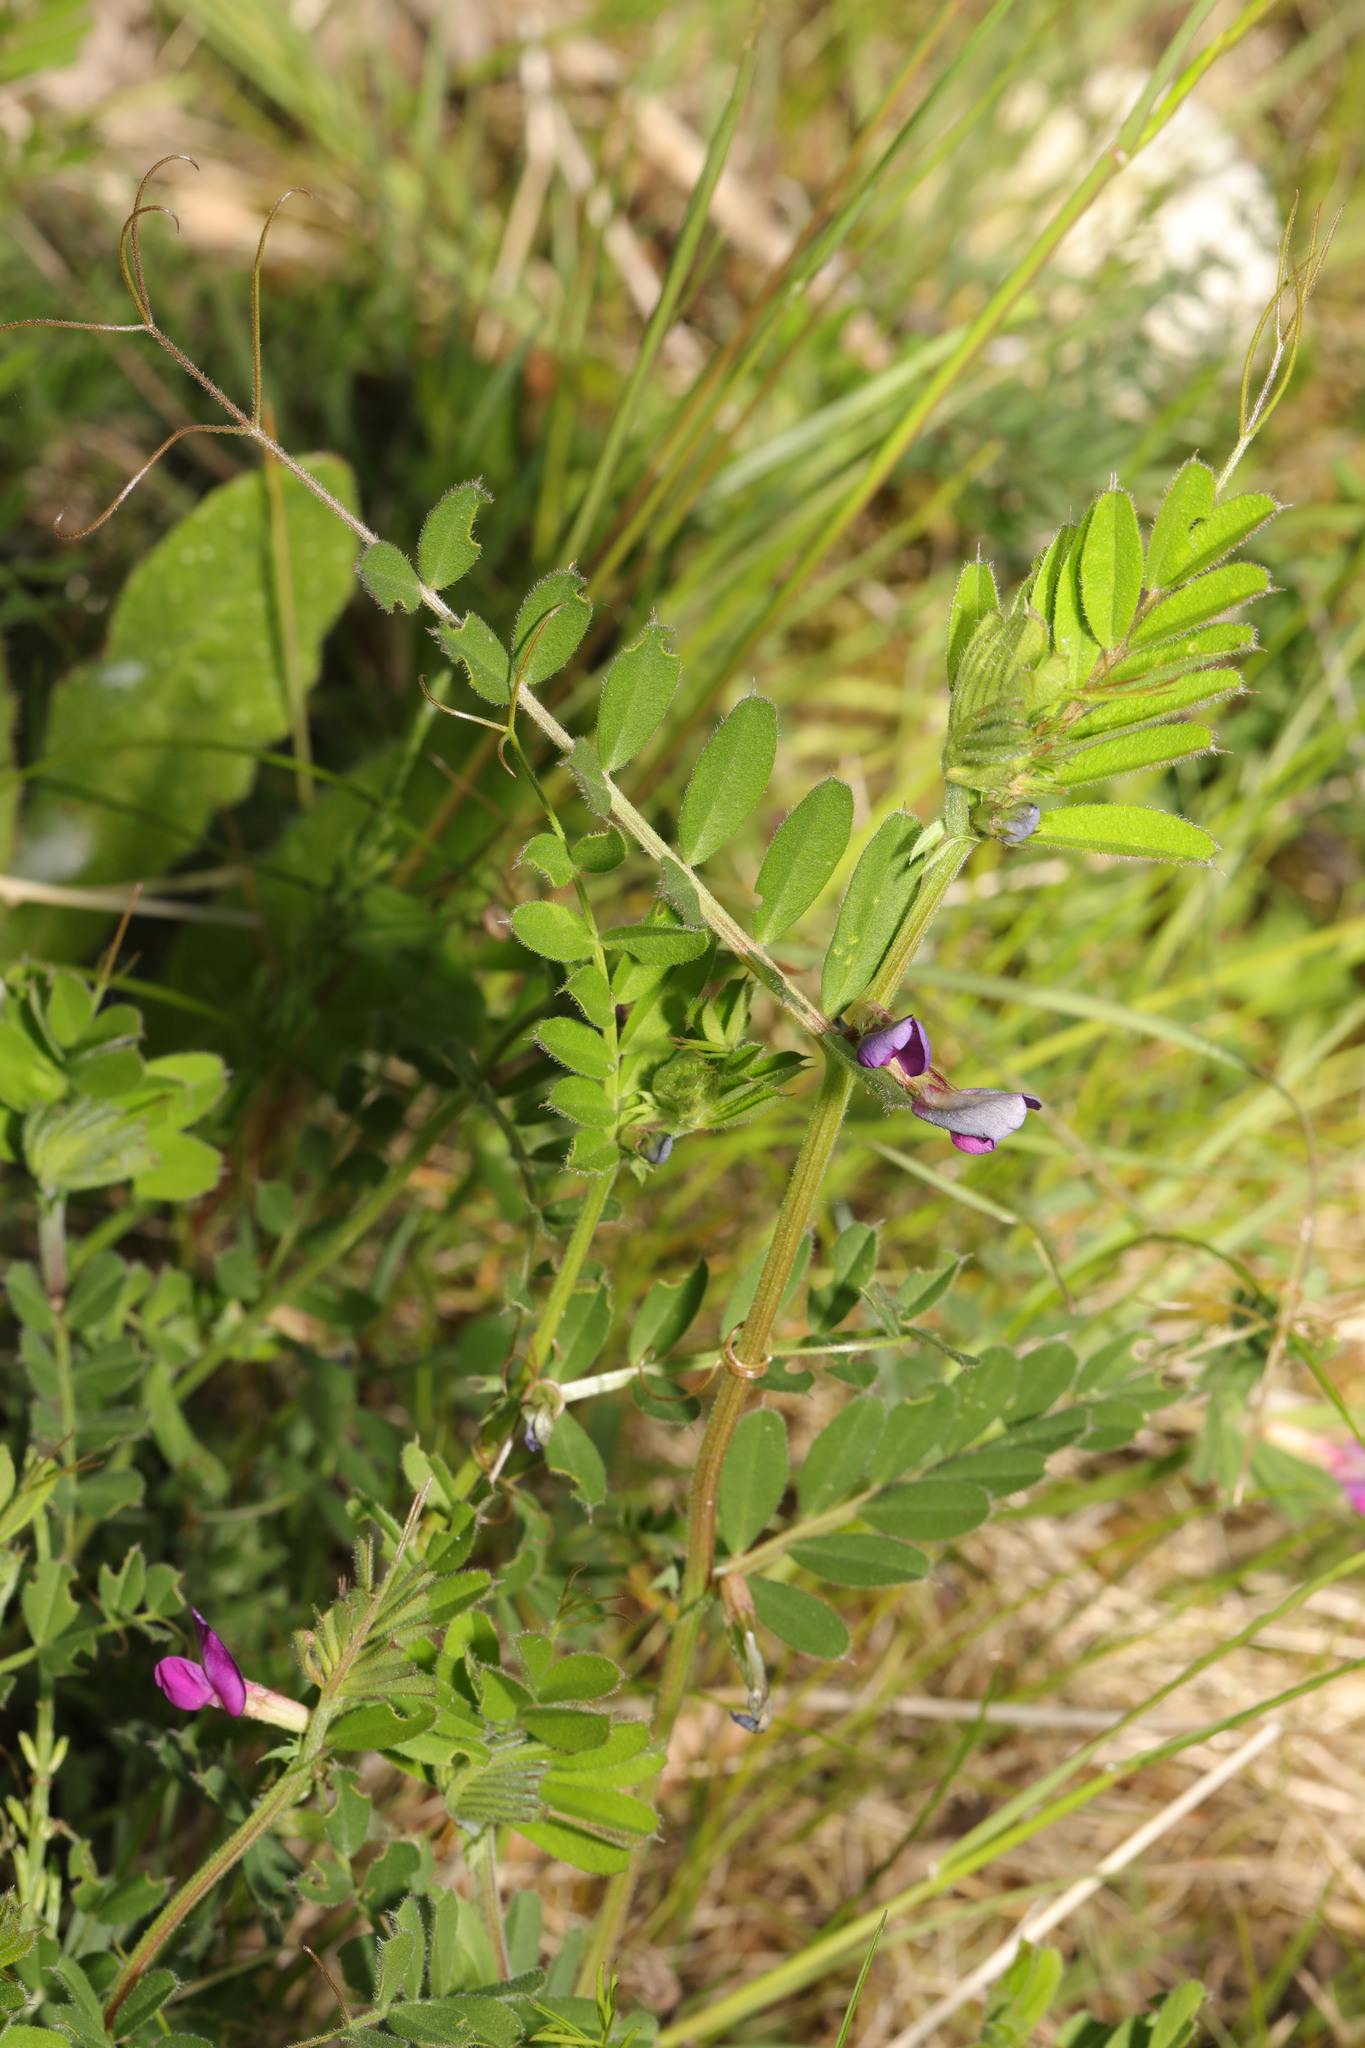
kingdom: Plantae
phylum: Tracheophyta
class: Magnoliopsida
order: Fabales
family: Fabaceae
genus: Vicia
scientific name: Vicia sativa
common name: Garden vetch
